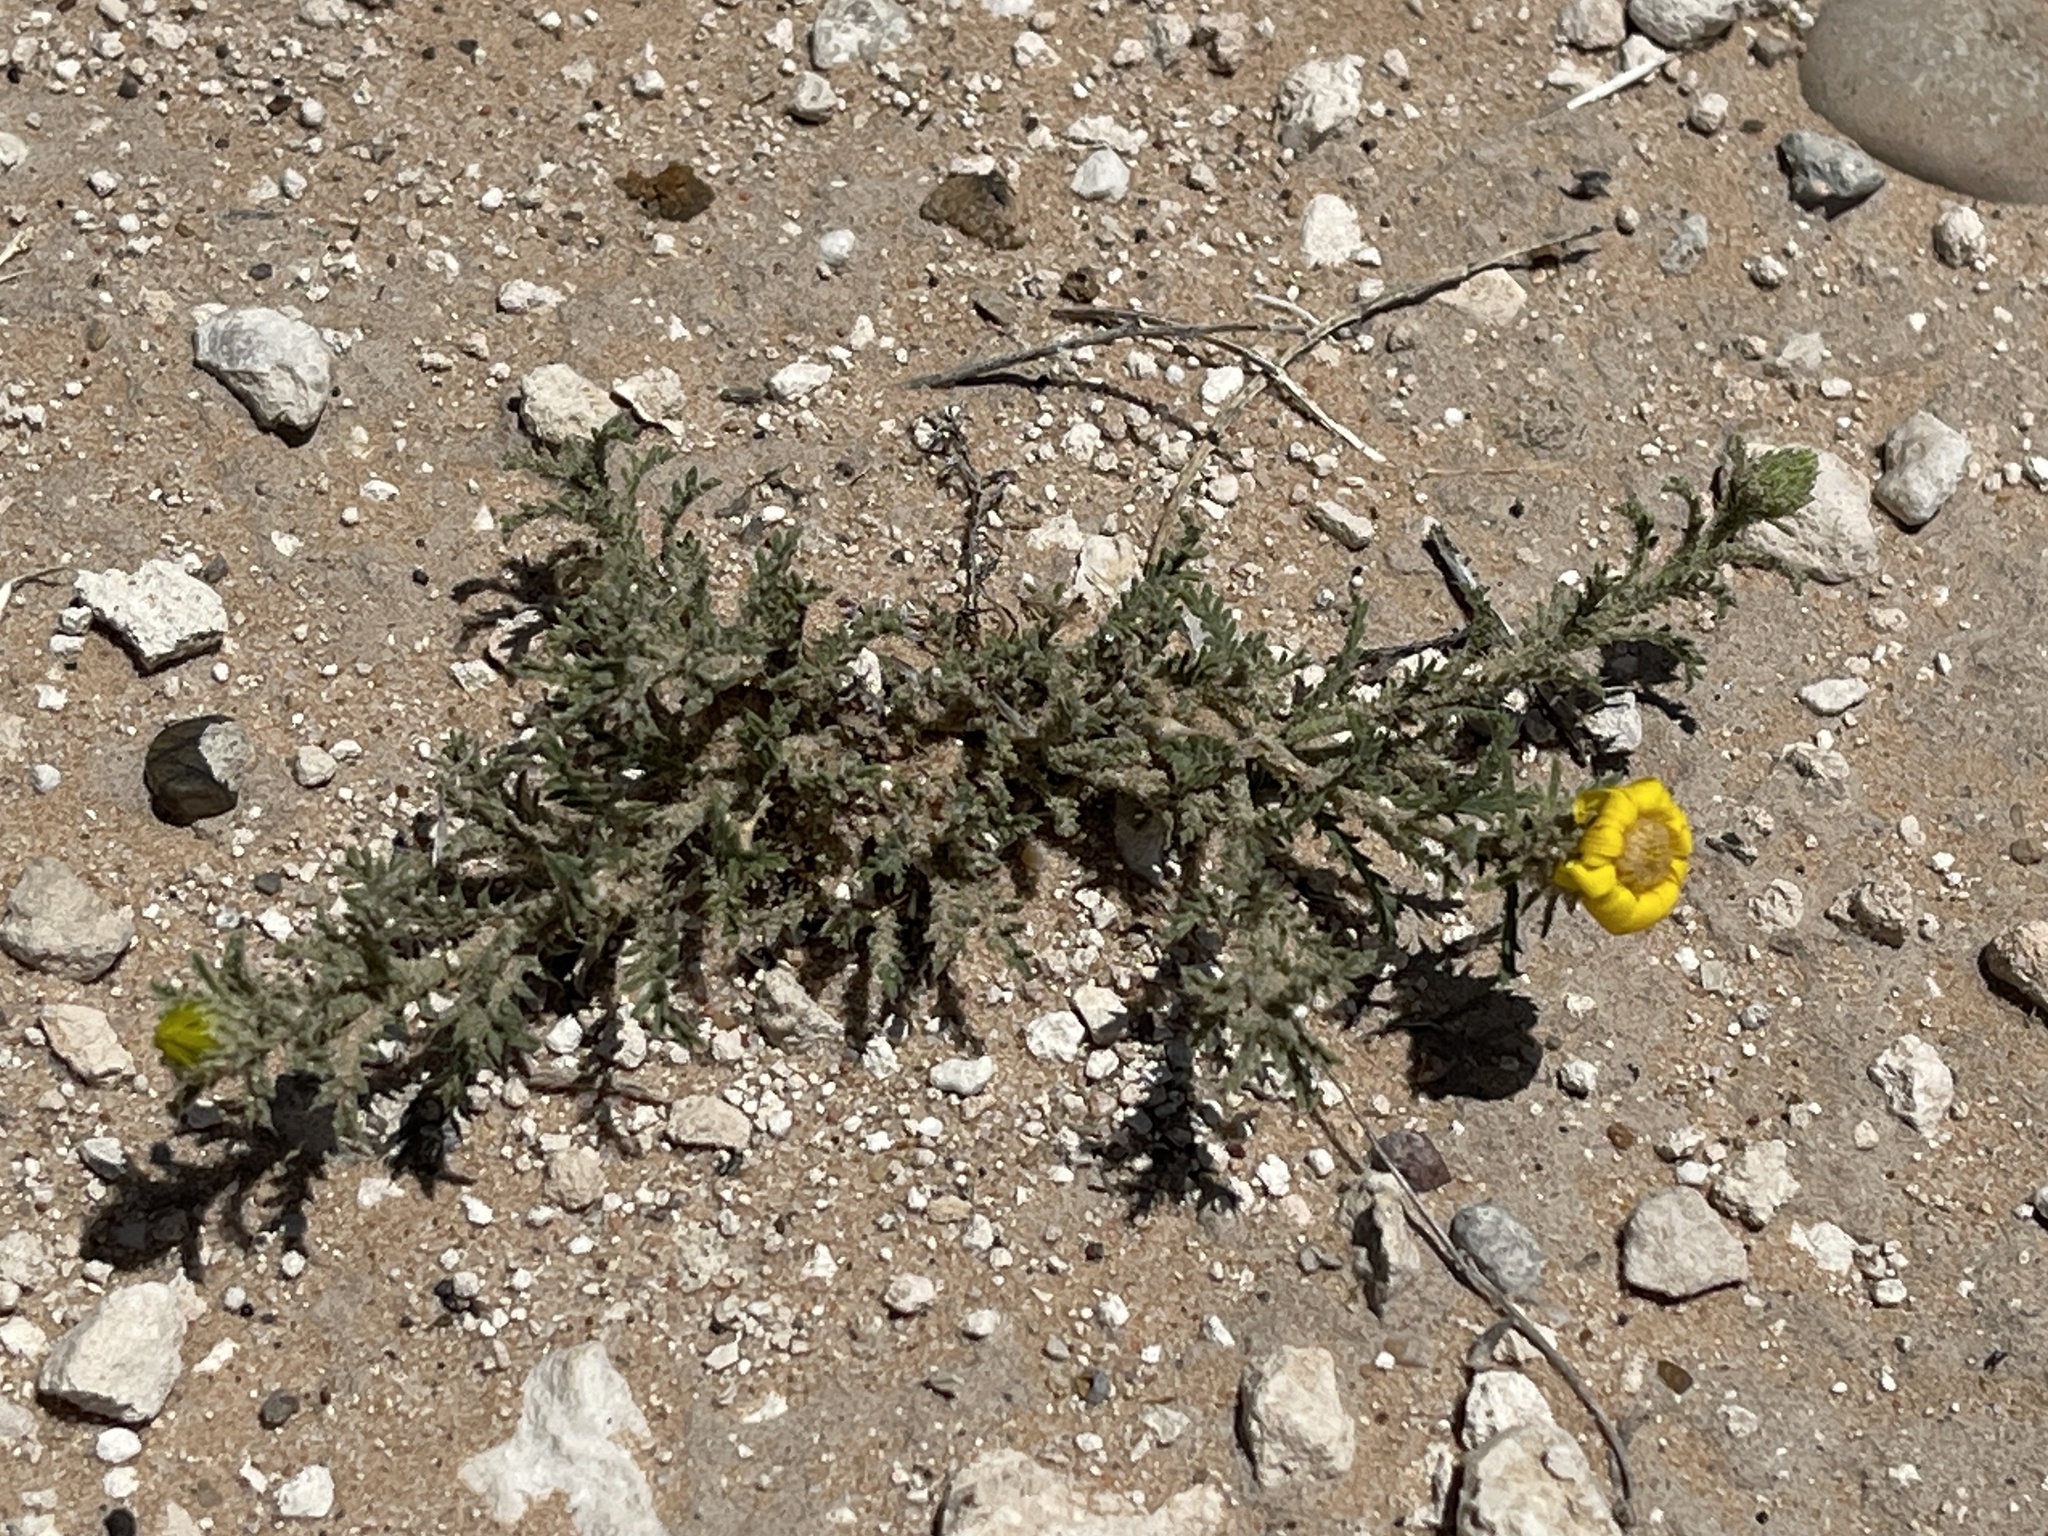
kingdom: Plantae
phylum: Tracheophyta
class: Magnoliopsida
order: Asterales
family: Asteraceae
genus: Xanthisma
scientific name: Xanthisma spinulosum
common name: Spiny goldenweed
